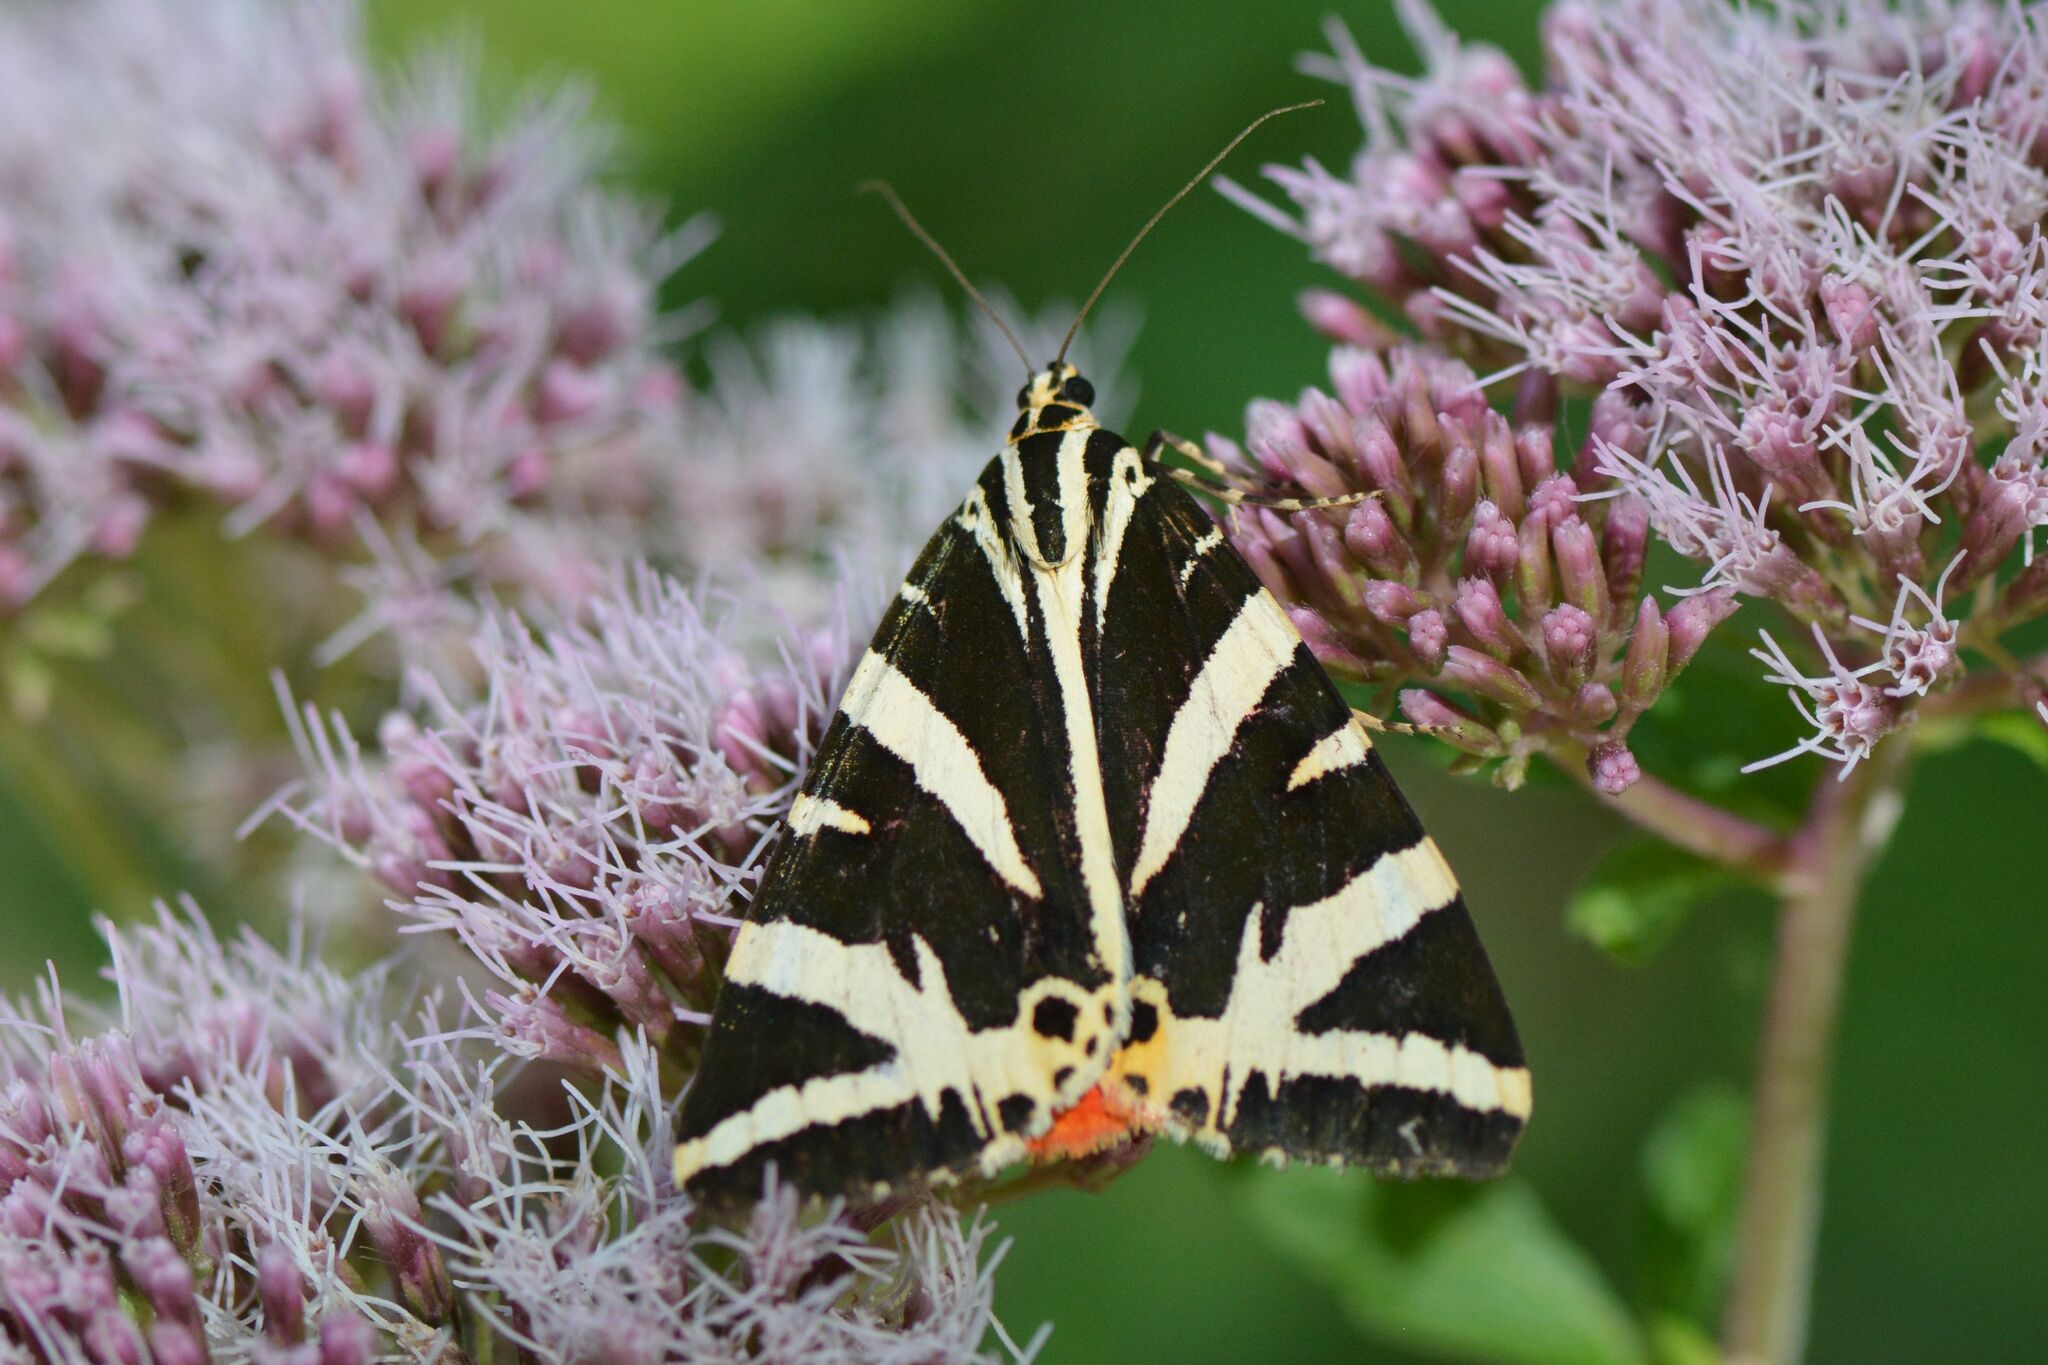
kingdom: Animalia
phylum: Arthropoda
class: Insecta
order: Lepidoptera
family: Erebidae
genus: Euplagia
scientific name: Euplagia quadripunctaria
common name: Jersey tiger
